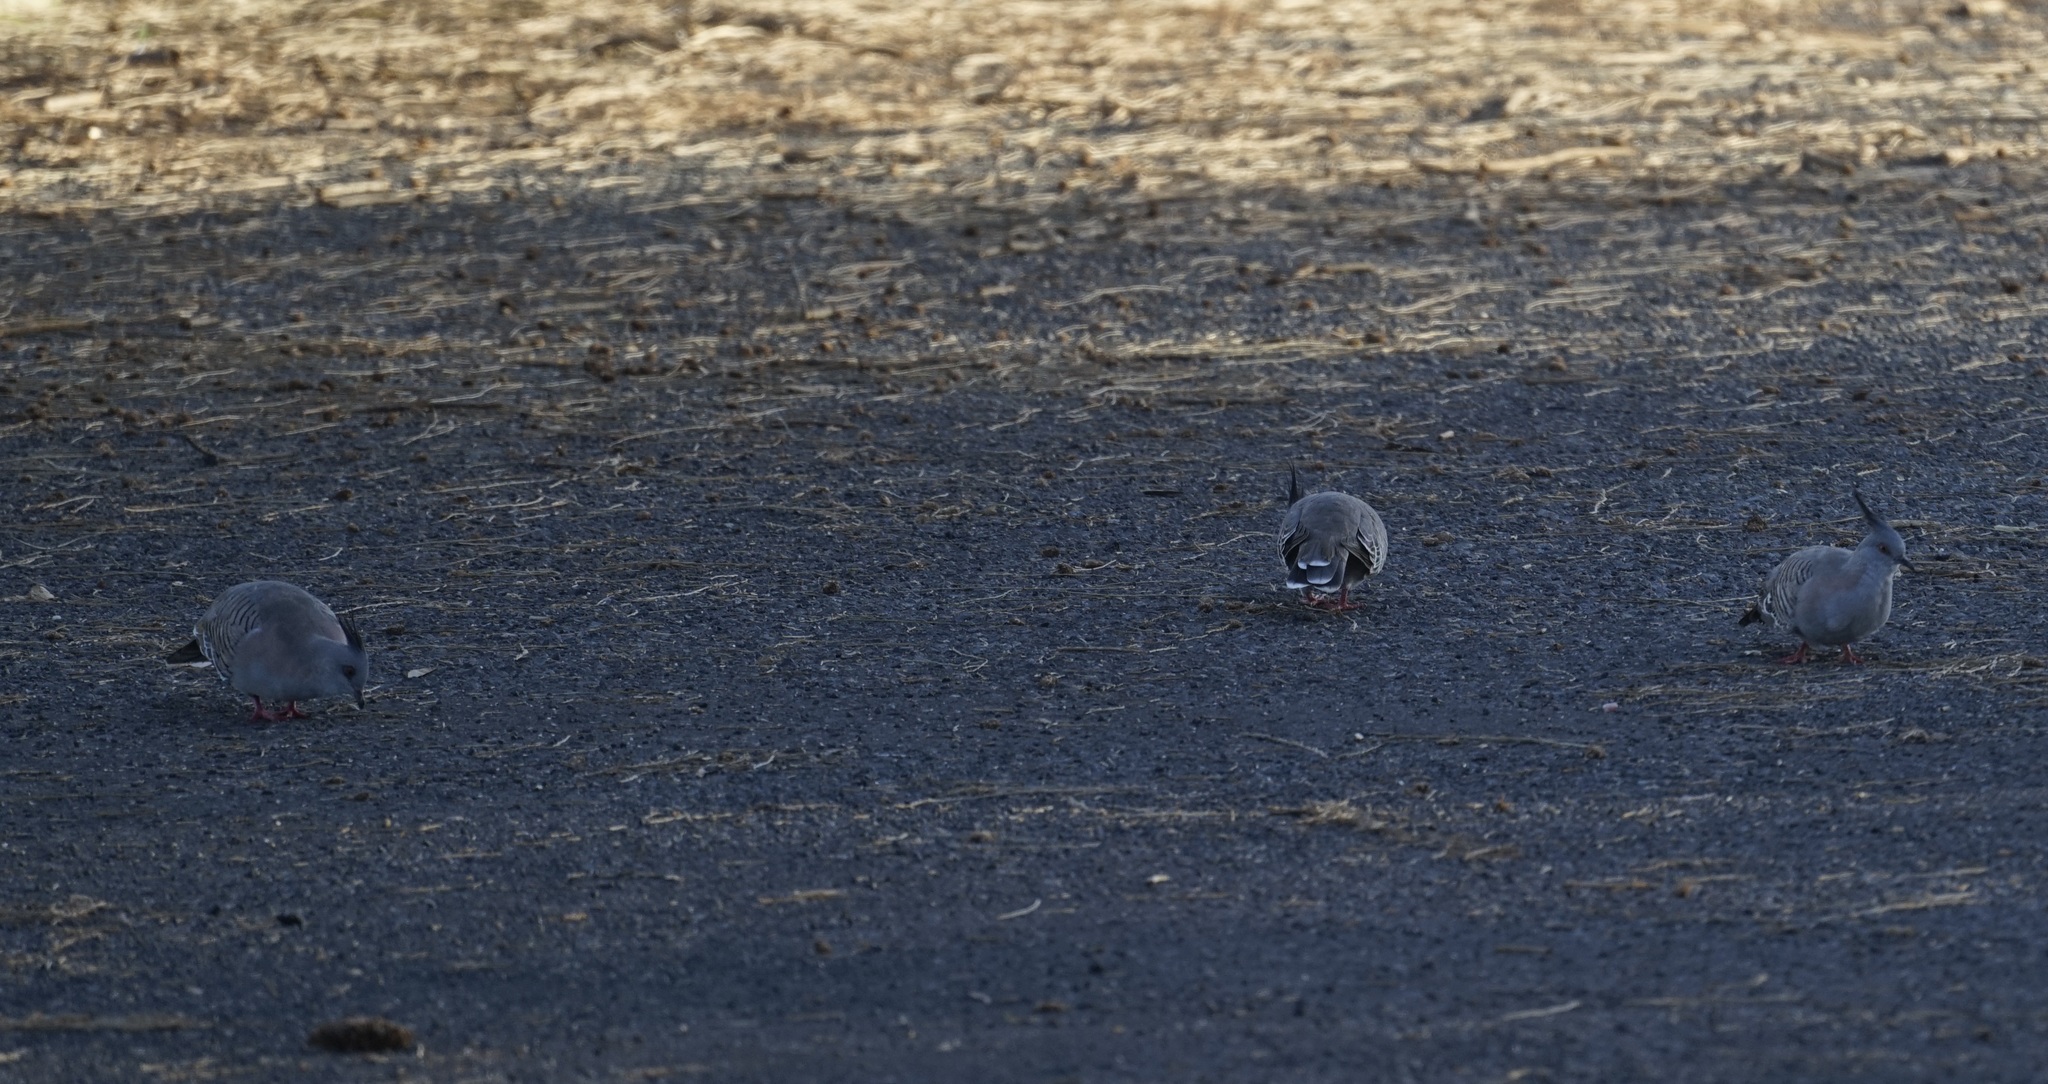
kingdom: Animalia
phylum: Chordata
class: Aves
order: Columbiformes
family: Columbidae
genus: Ocyphaps
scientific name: Ocyphaps lophotes
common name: Crested pigeon
